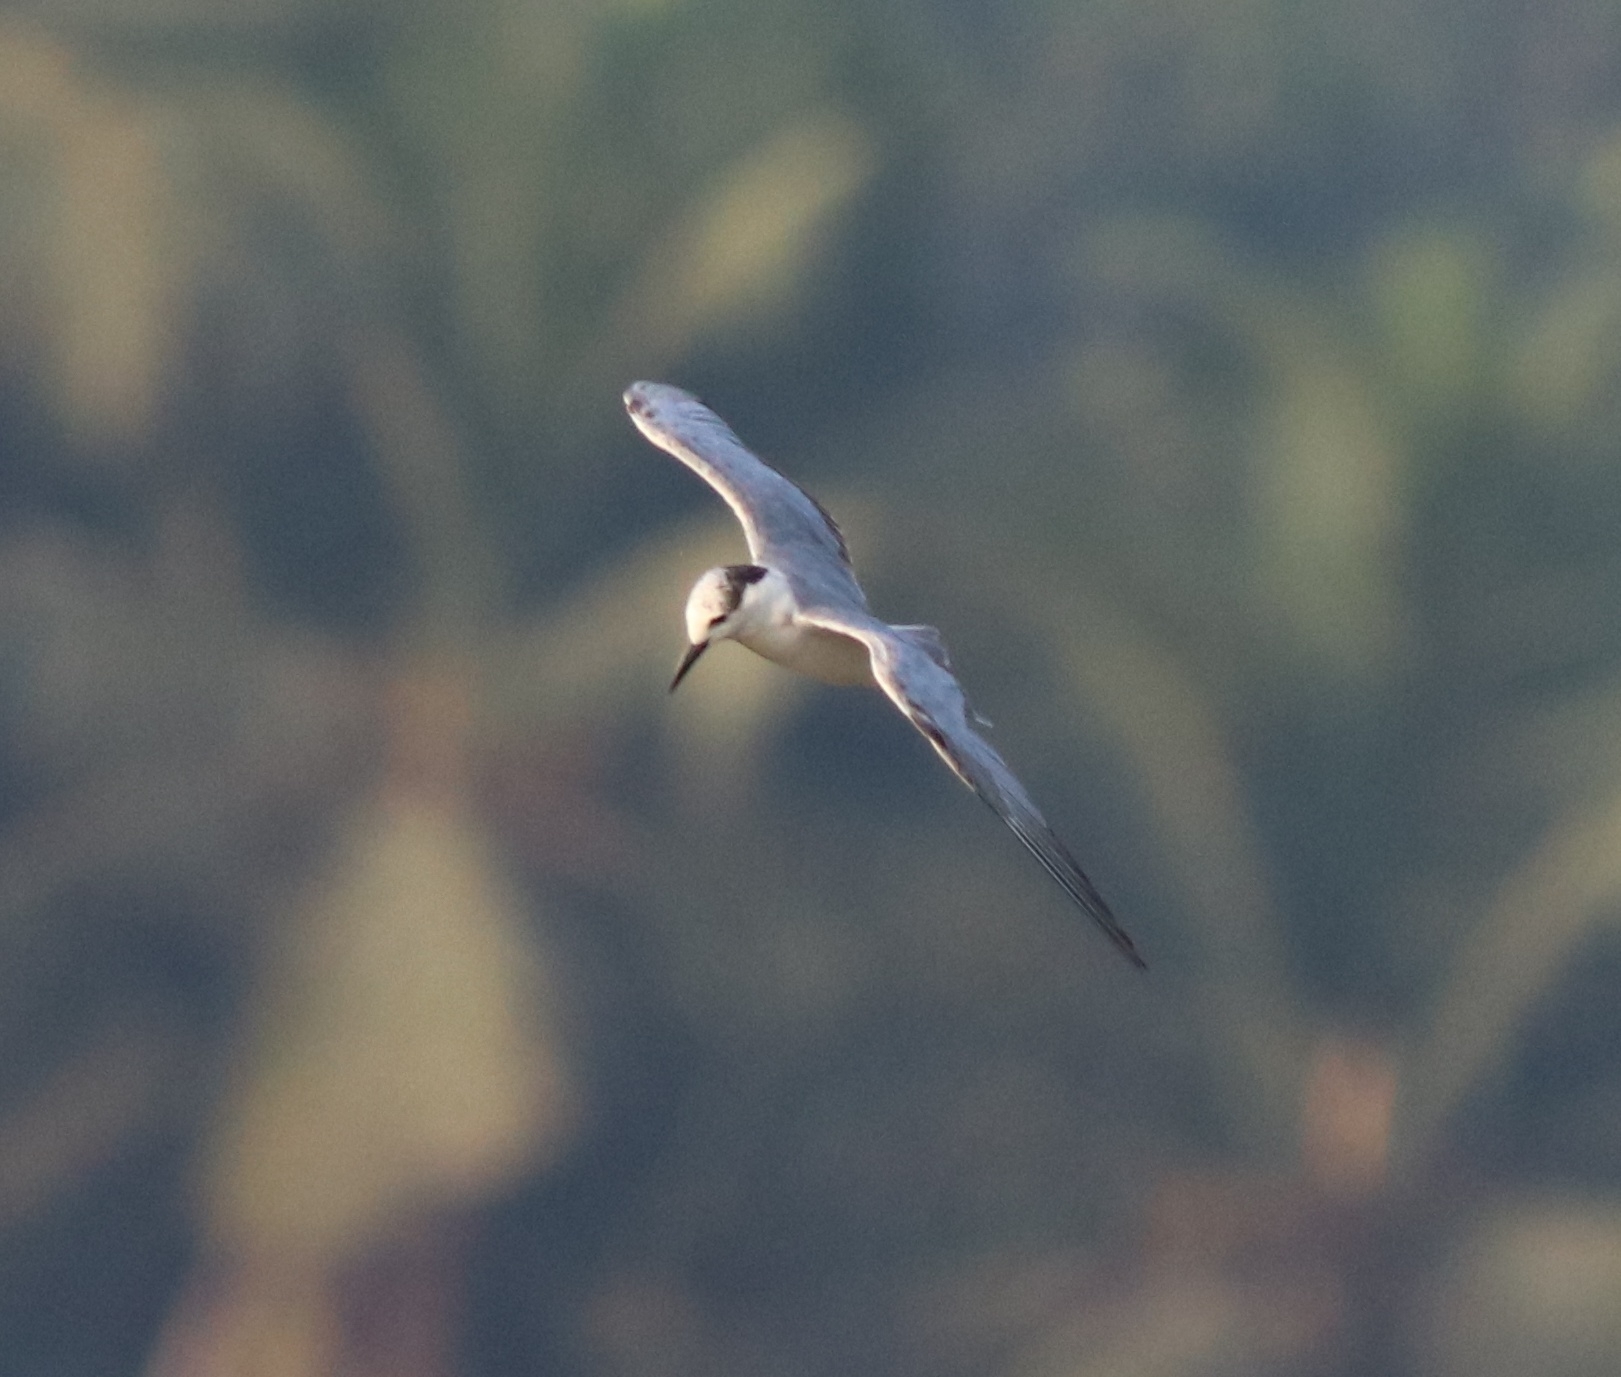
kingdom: Animalia
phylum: Chordata
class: Aves
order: Charadriiformes
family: Laridae
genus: Chlidonias
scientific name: Chlidonias hybrida
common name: Whiskered tern
